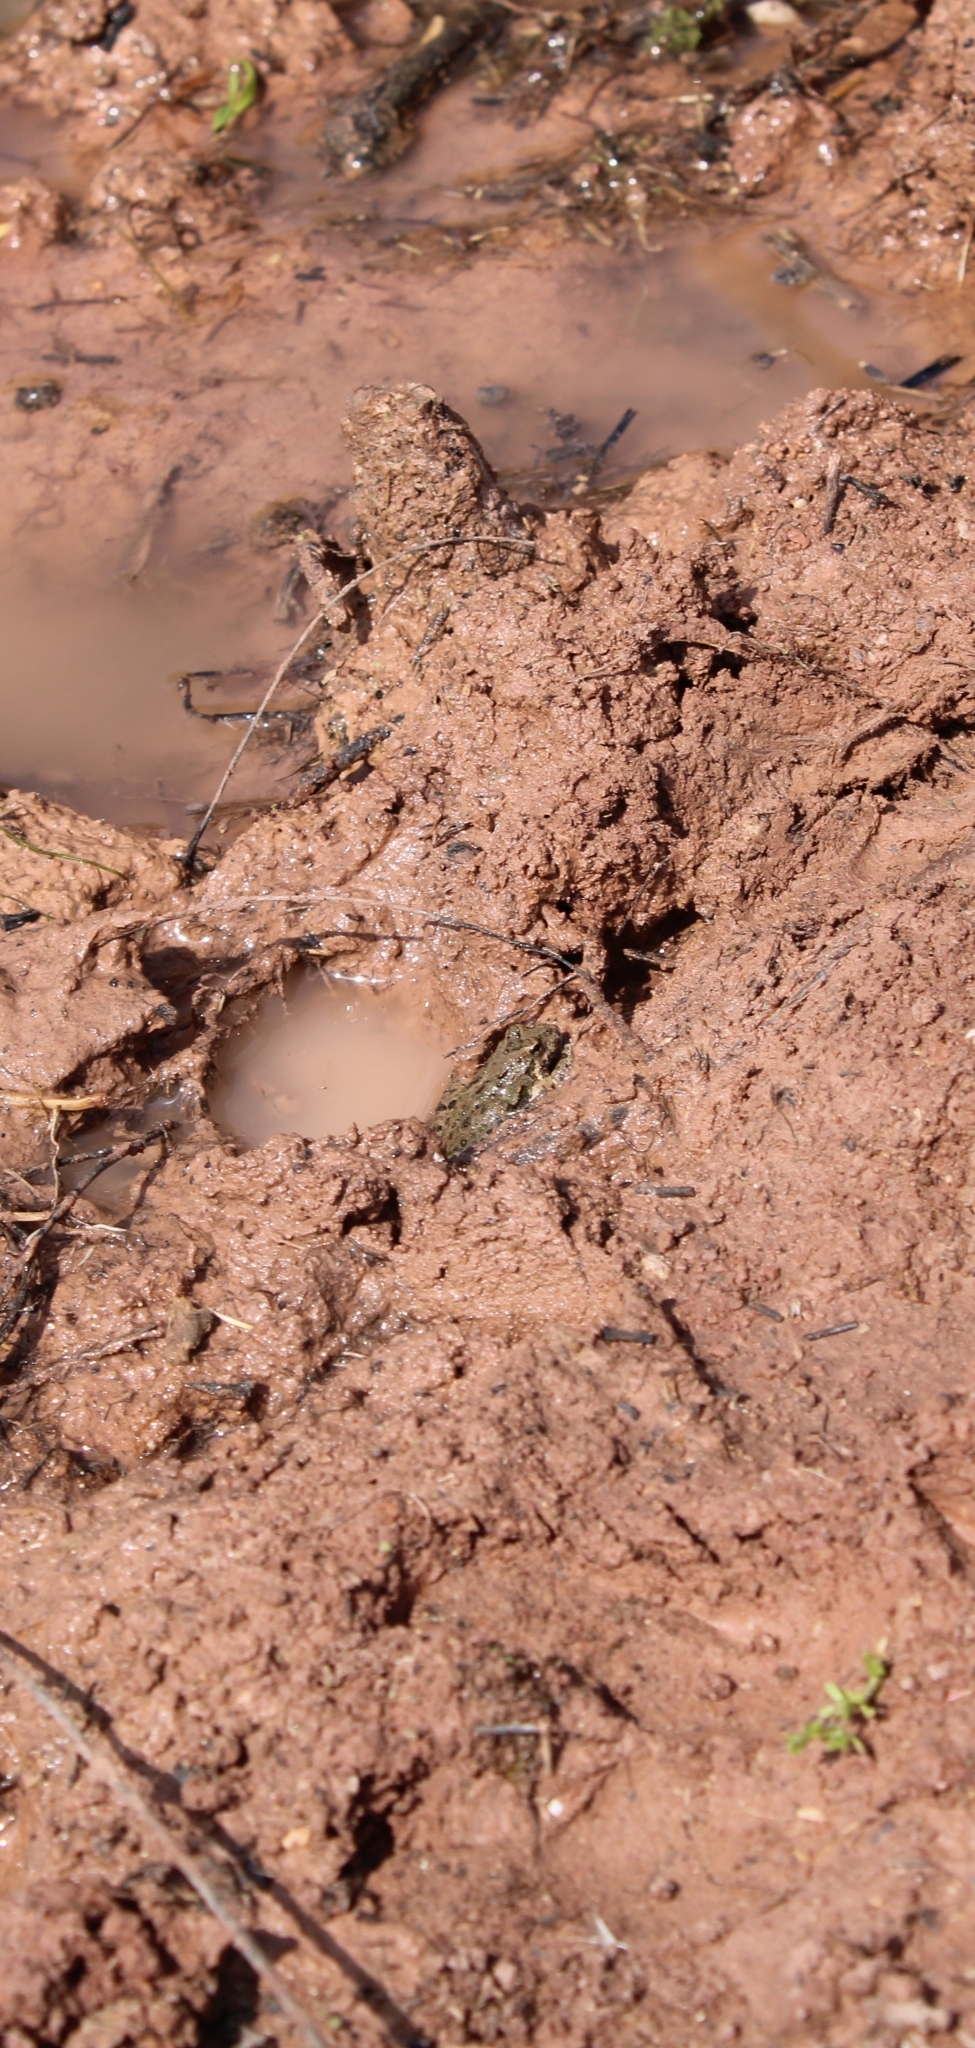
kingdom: Animalia
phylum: Chordata
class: Amphibia
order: Anura
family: Hylidae
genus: Acris
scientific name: Acris blanchardi
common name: Blanchard's cricket frog
